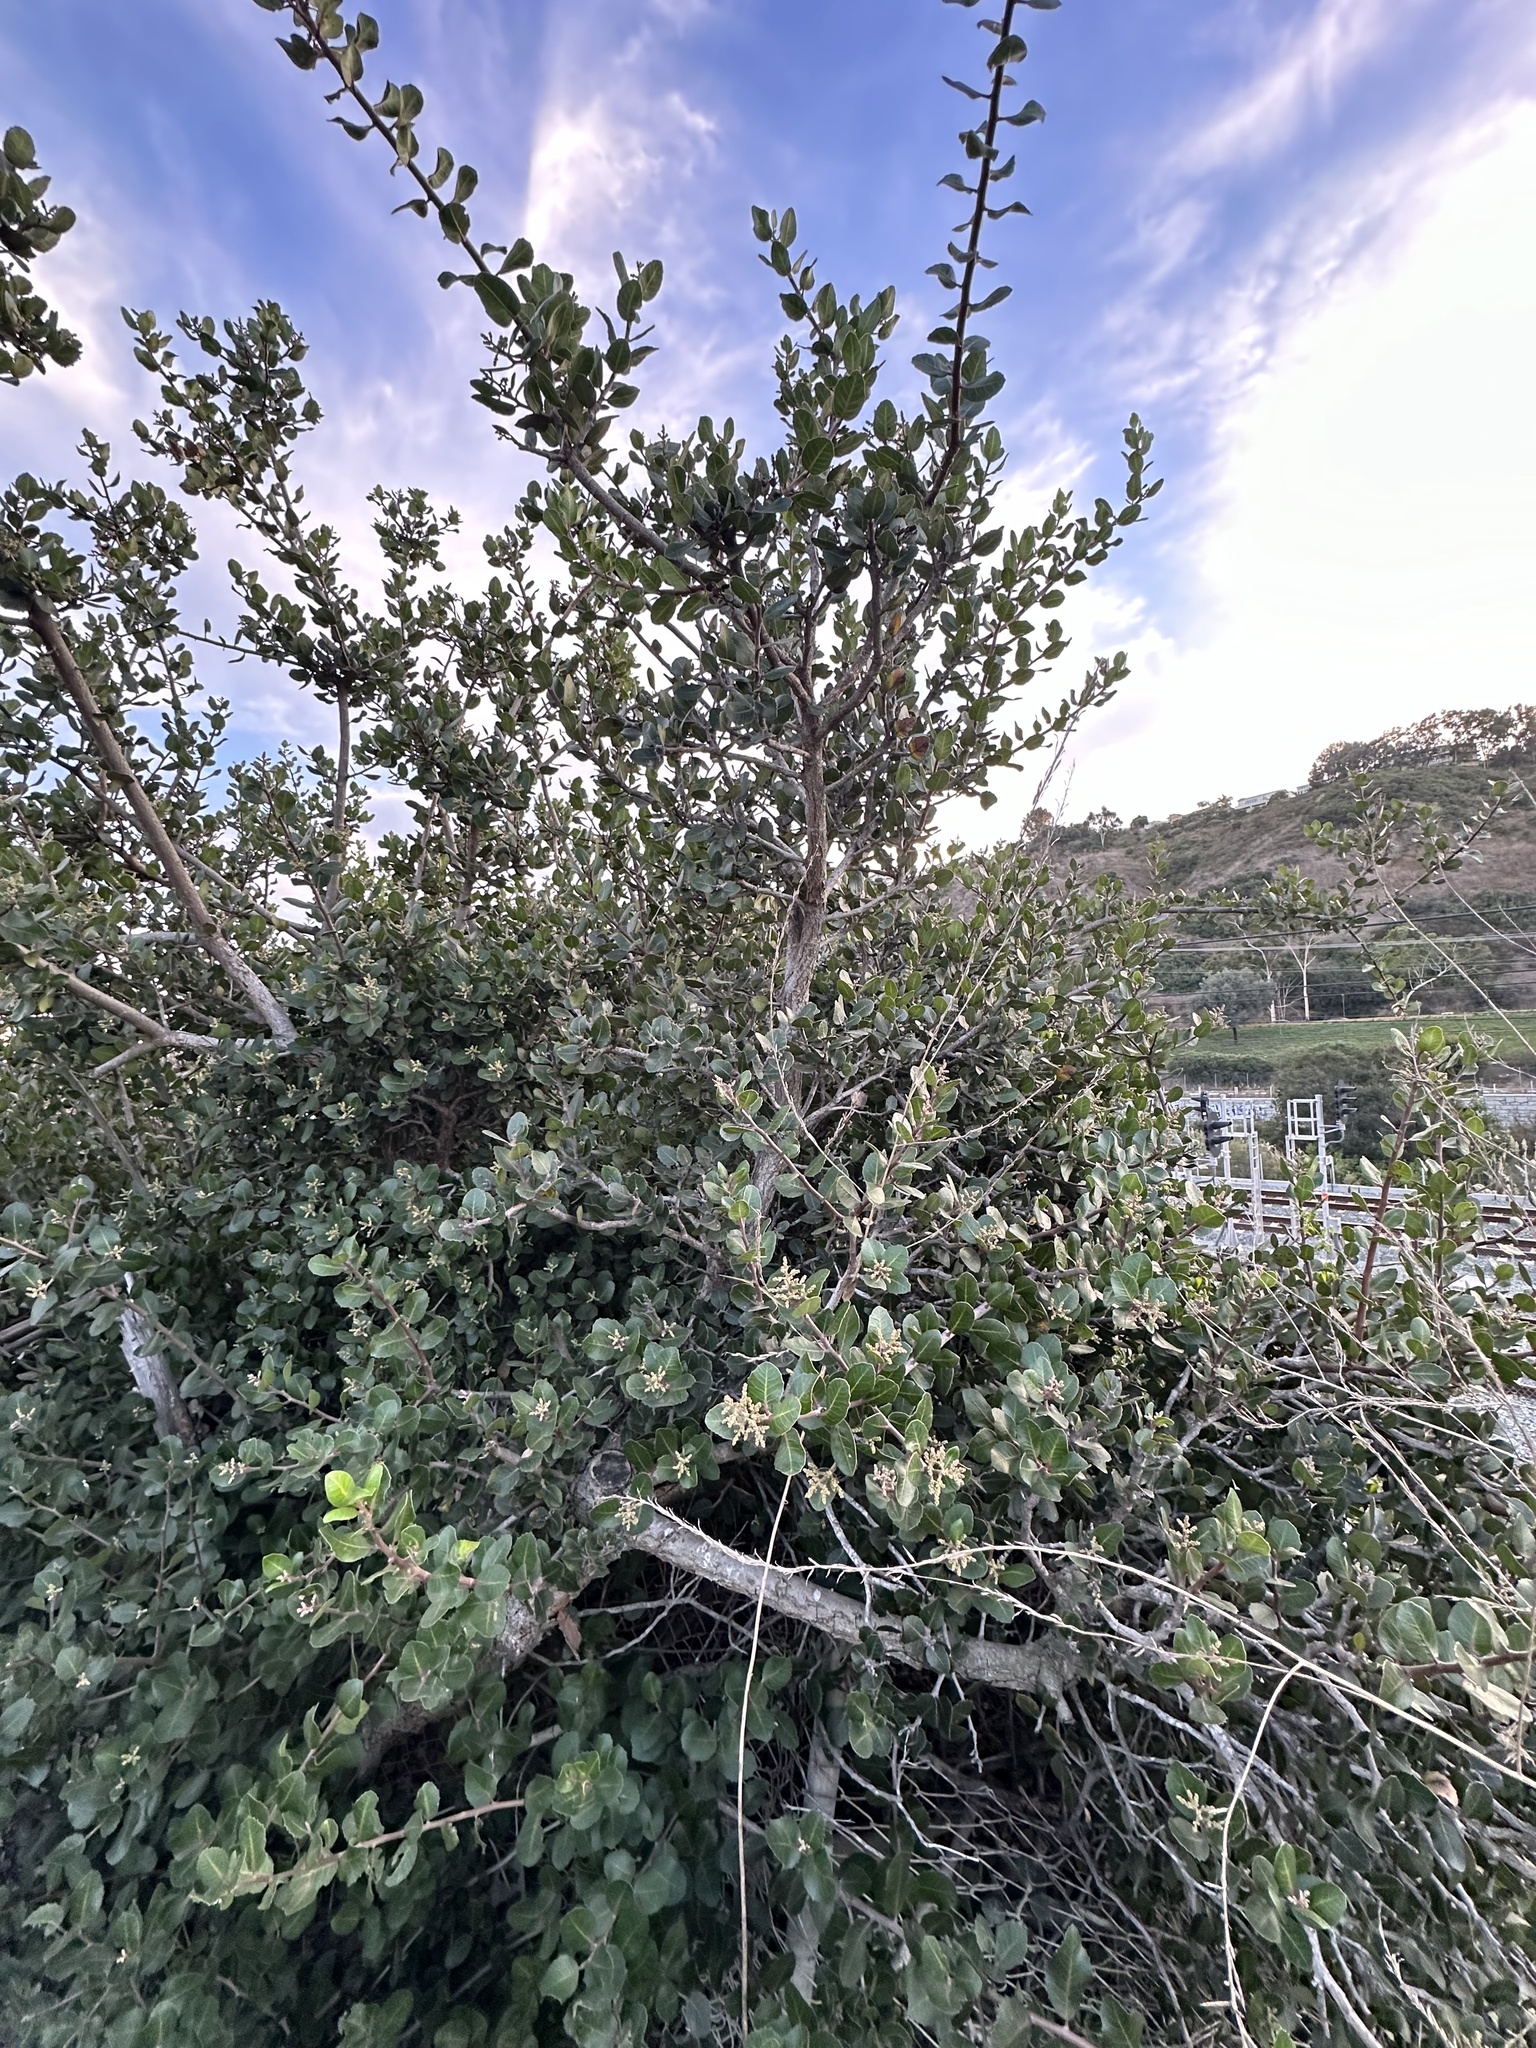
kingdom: Plantae
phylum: Tracheophyta
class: Magnoliopsida
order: Sapindales
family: Anacardiaceae
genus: Rhus
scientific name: Rhus integrifolia
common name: Lemonade sumac
